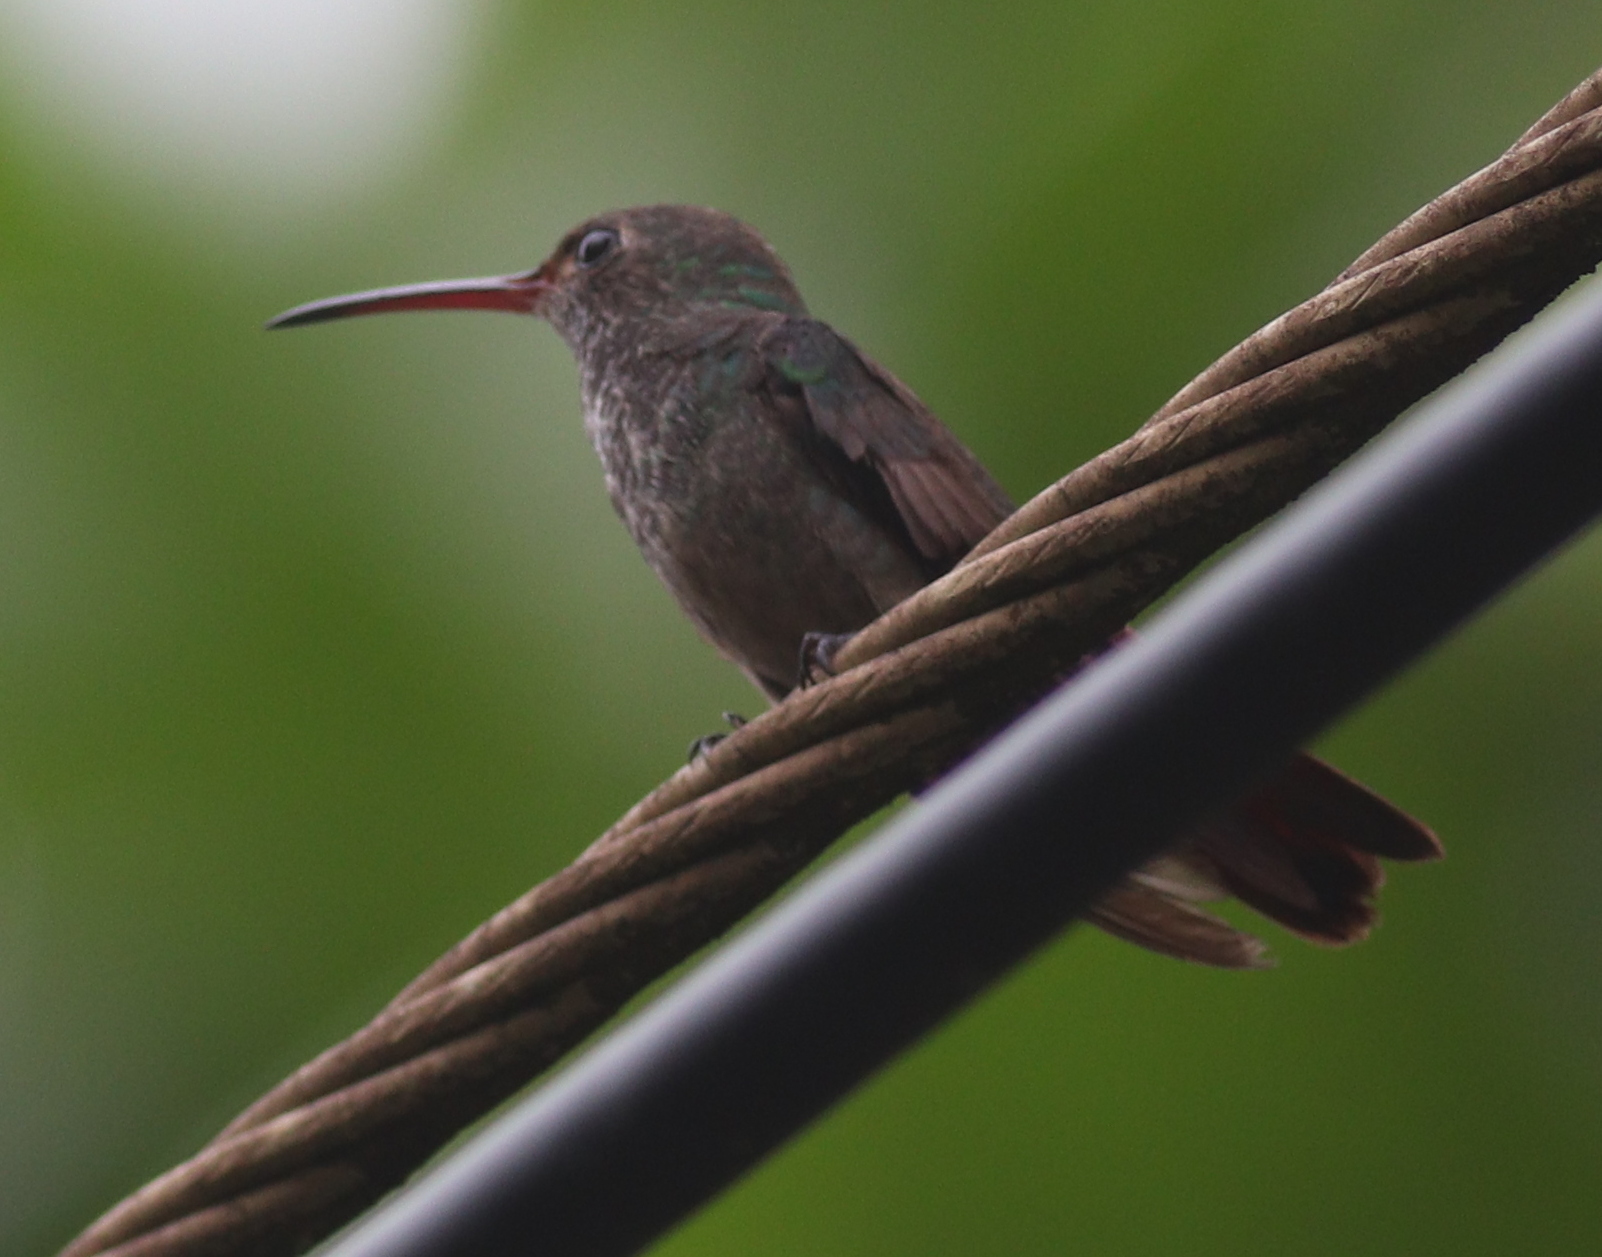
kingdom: Animalia
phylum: Chordata
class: Aves
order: Apodiformes
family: Trochilidae
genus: Amazilia
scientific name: Amazilia tzacatl
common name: Rufous-tailed hummingbird
